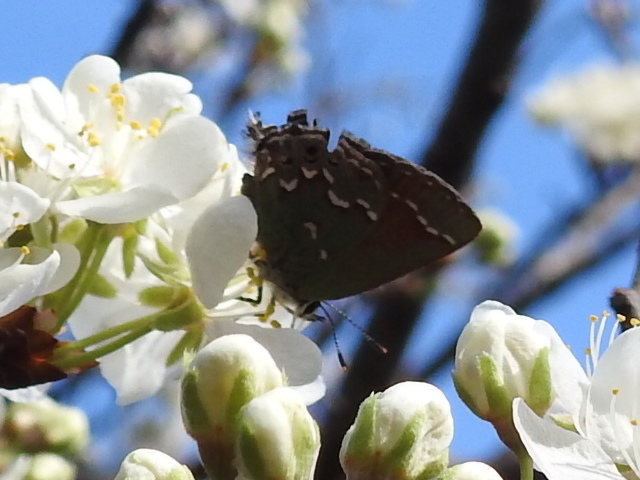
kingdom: Animalia
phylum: Arthropoda
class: Insecta
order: Lepidoptera
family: Lycaenidae
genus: Mitoura
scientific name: Mitoura gryneus
